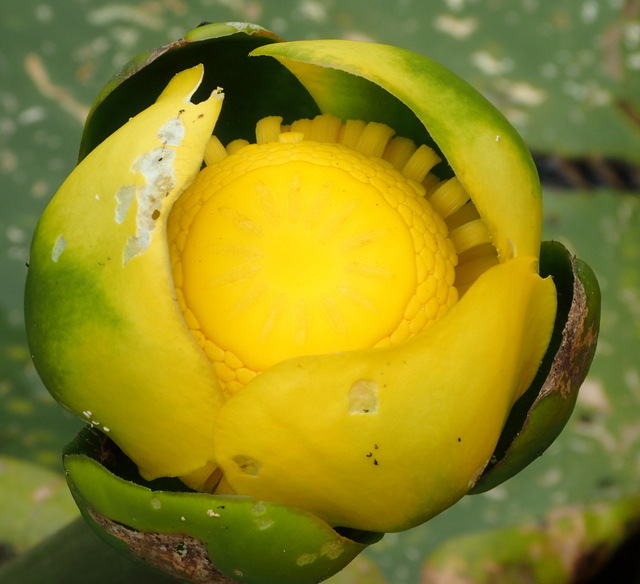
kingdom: Plantae
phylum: Tracheophyta
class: Magnoliopsida
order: Nymphaeales
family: Nymphaeaceae
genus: Nuphar
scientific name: Nuphar advena
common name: Spatter-dock
